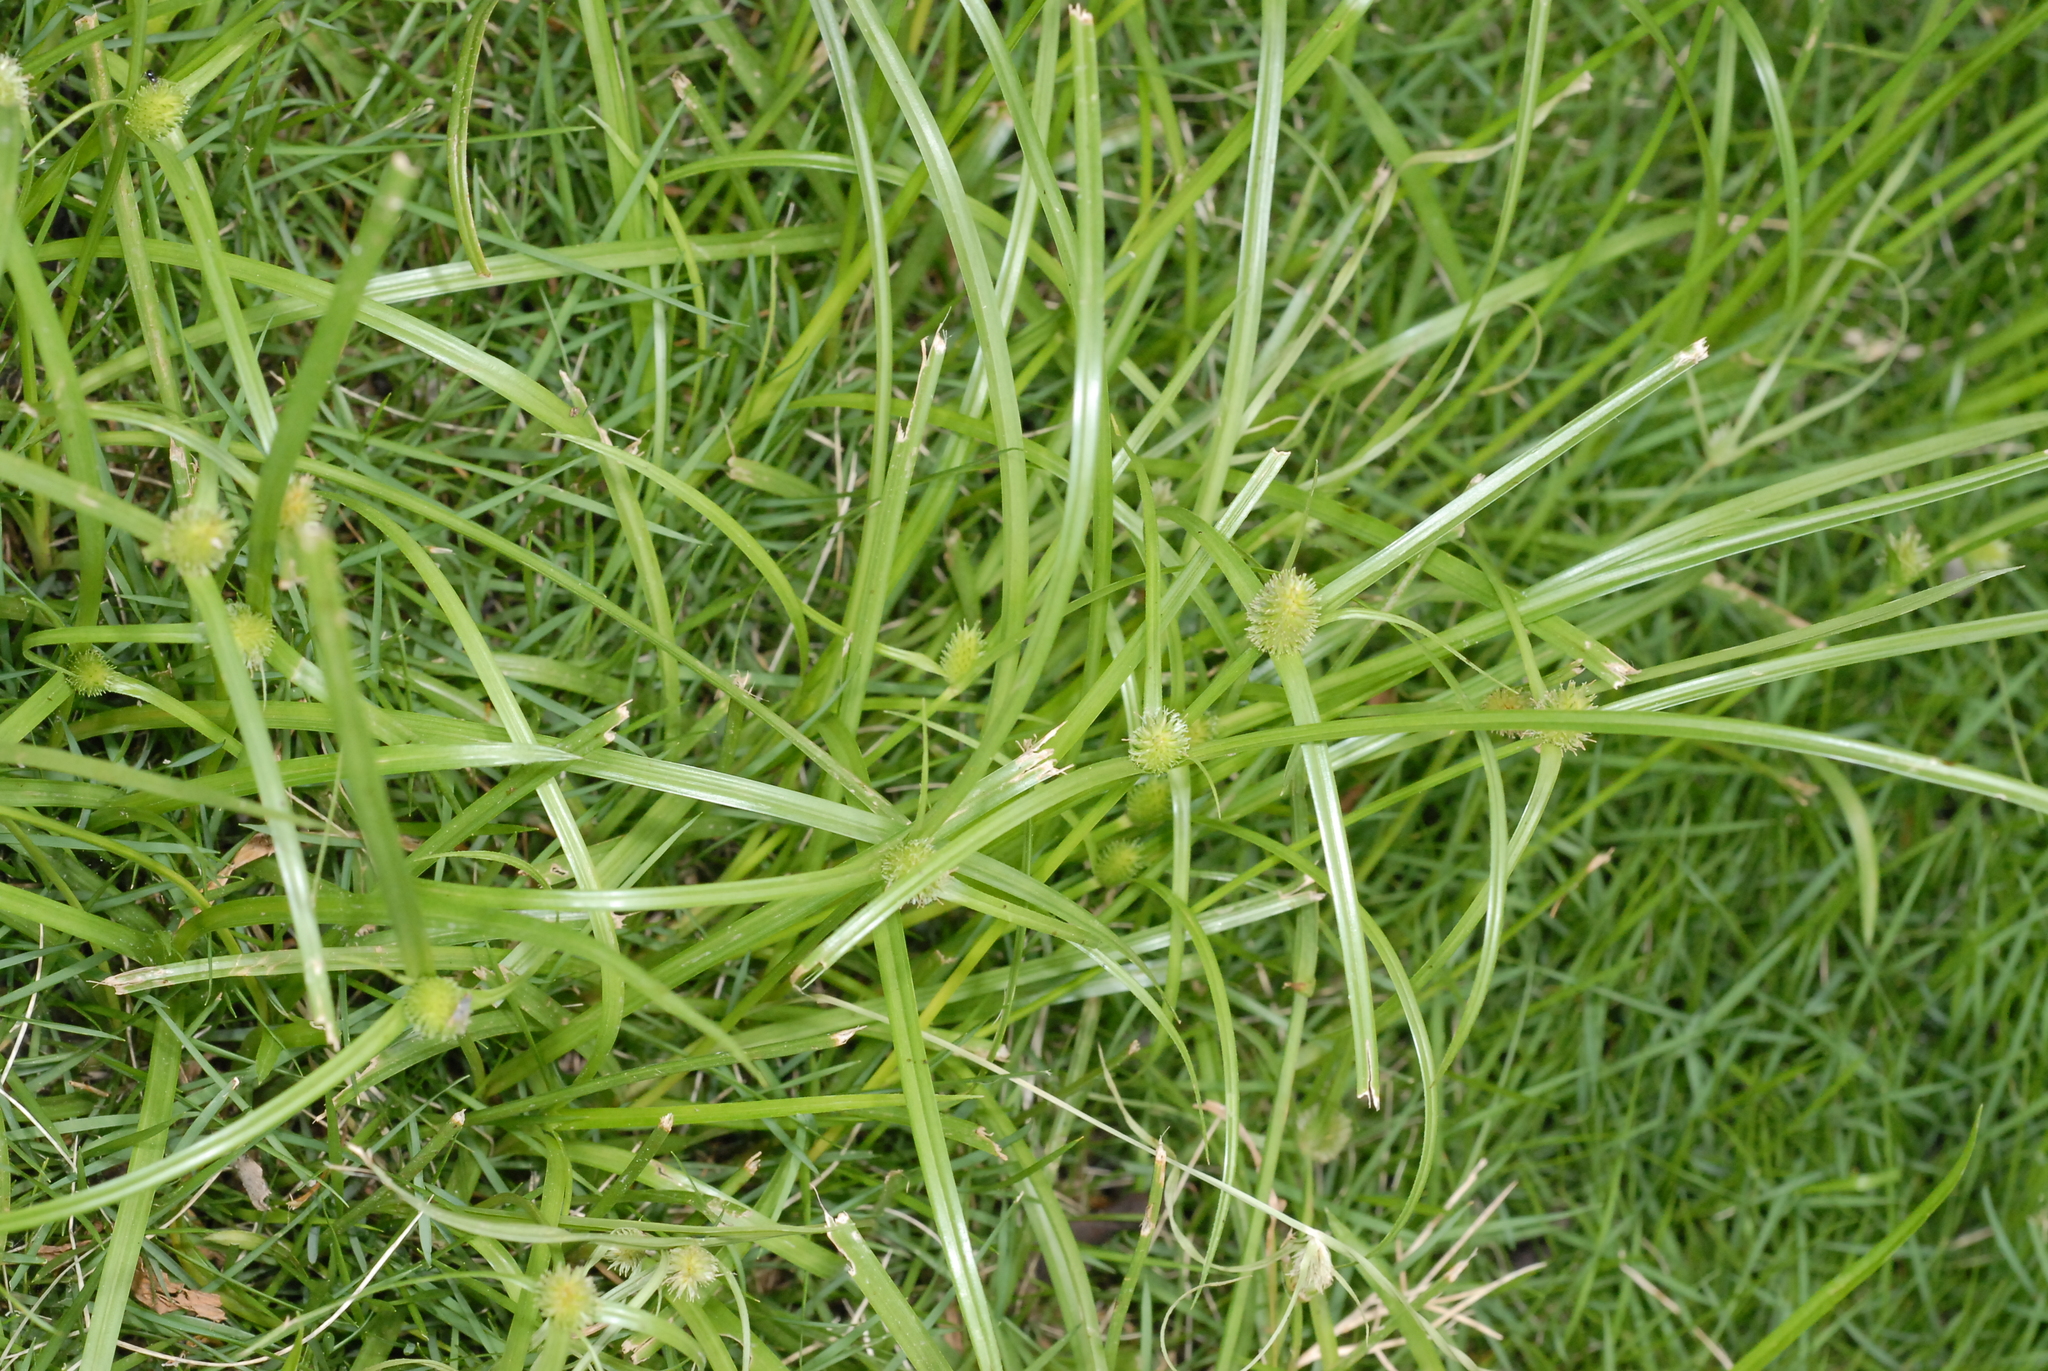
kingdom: Plantae
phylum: Tracheophyta
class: Liliopsida
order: Poales
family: Cyperaceae
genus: Cyperus
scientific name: Cyperus brevifolius
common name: Globe kyllinga
